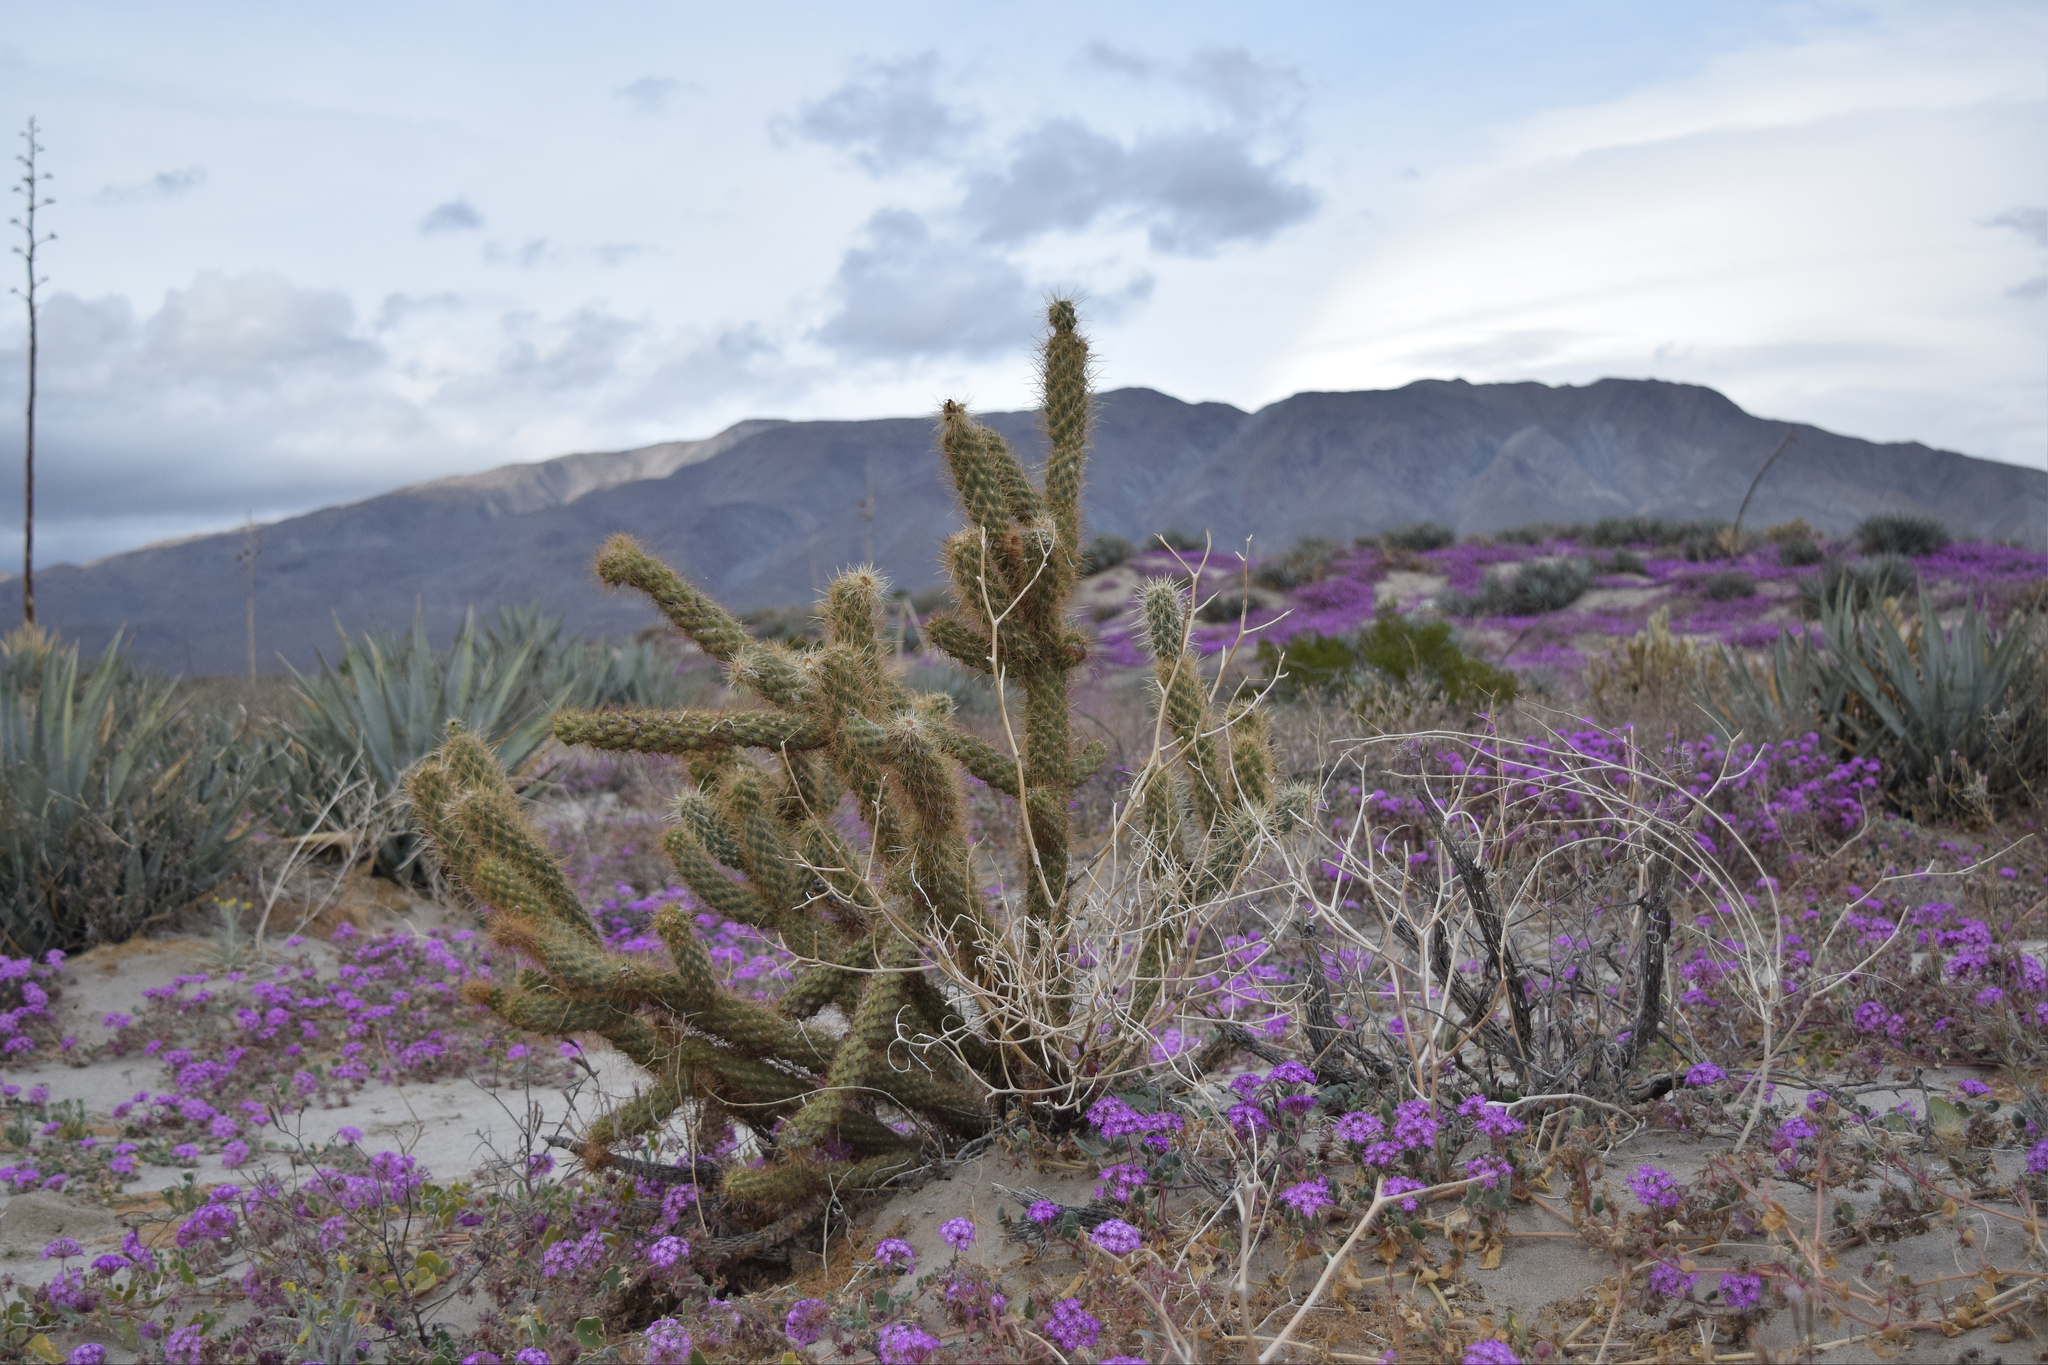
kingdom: Plantae
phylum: Tracheophyta
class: Magnoliopsida
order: Caryophyllales
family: Cactaceae
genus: Cylindropuntia
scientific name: Cylindropuntia ganderi
